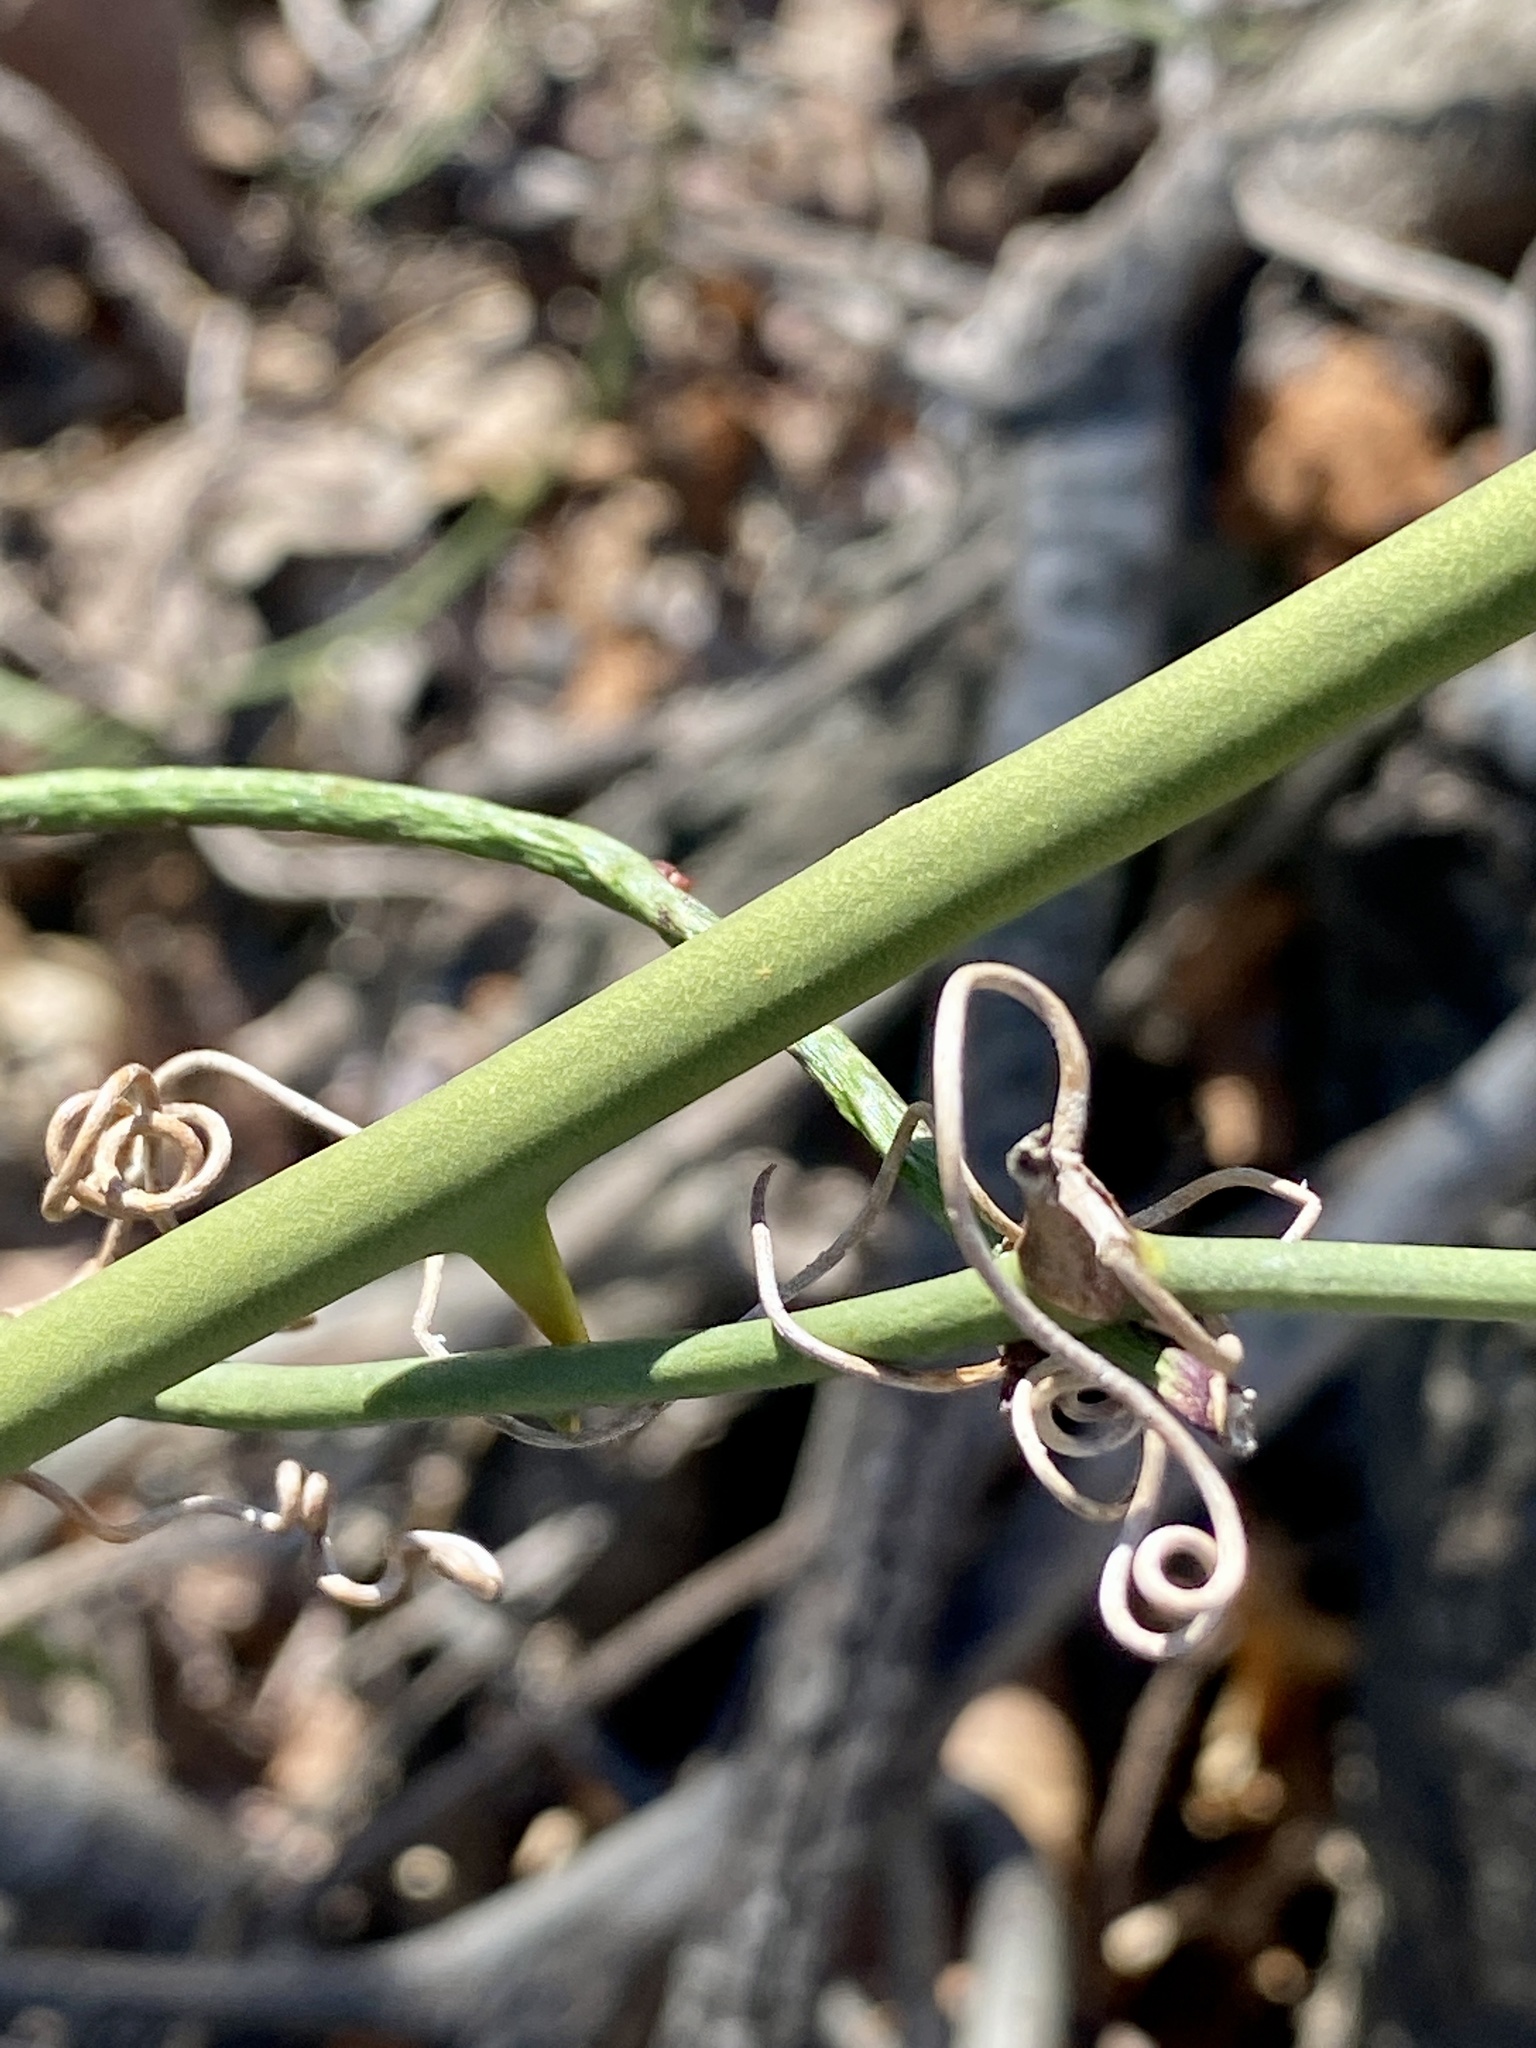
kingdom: Plantae
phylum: Tracheophyta
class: Liliopsida
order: Liliales
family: Smilacaceae
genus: Smilax
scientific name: Smilax rotundifolia
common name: Bullbriar
